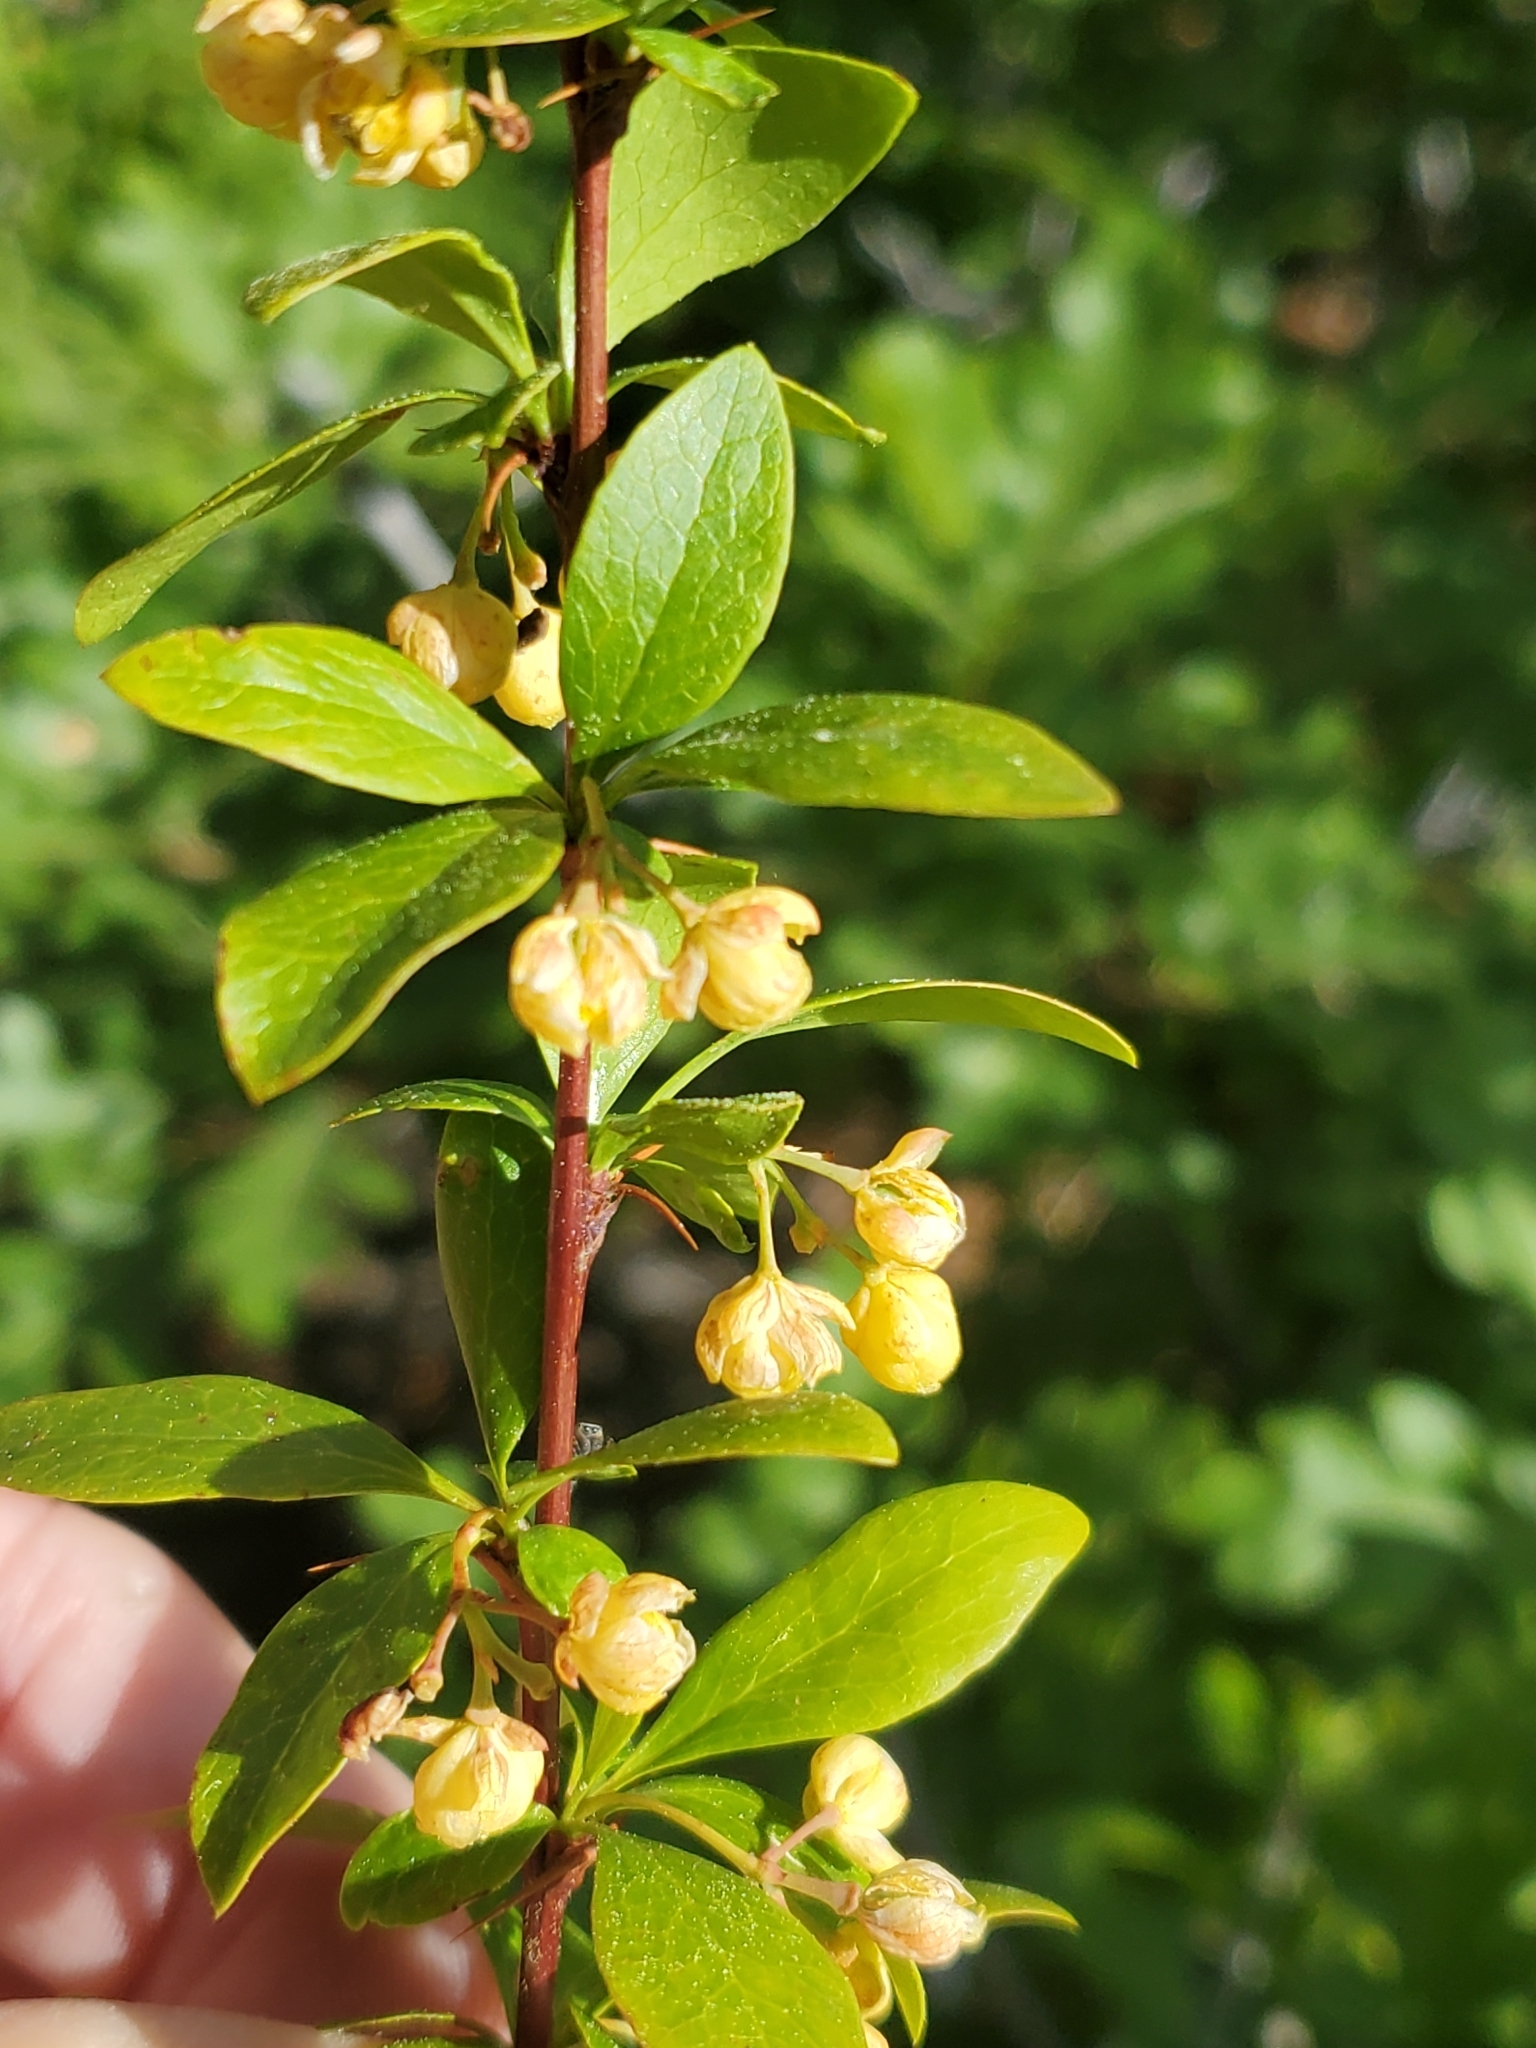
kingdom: Plantae
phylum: Tracheophyta
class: Magnoliopsida
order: Ranunculales
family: Berberidaceae
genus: Berberis
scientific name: Berberis fendleri
